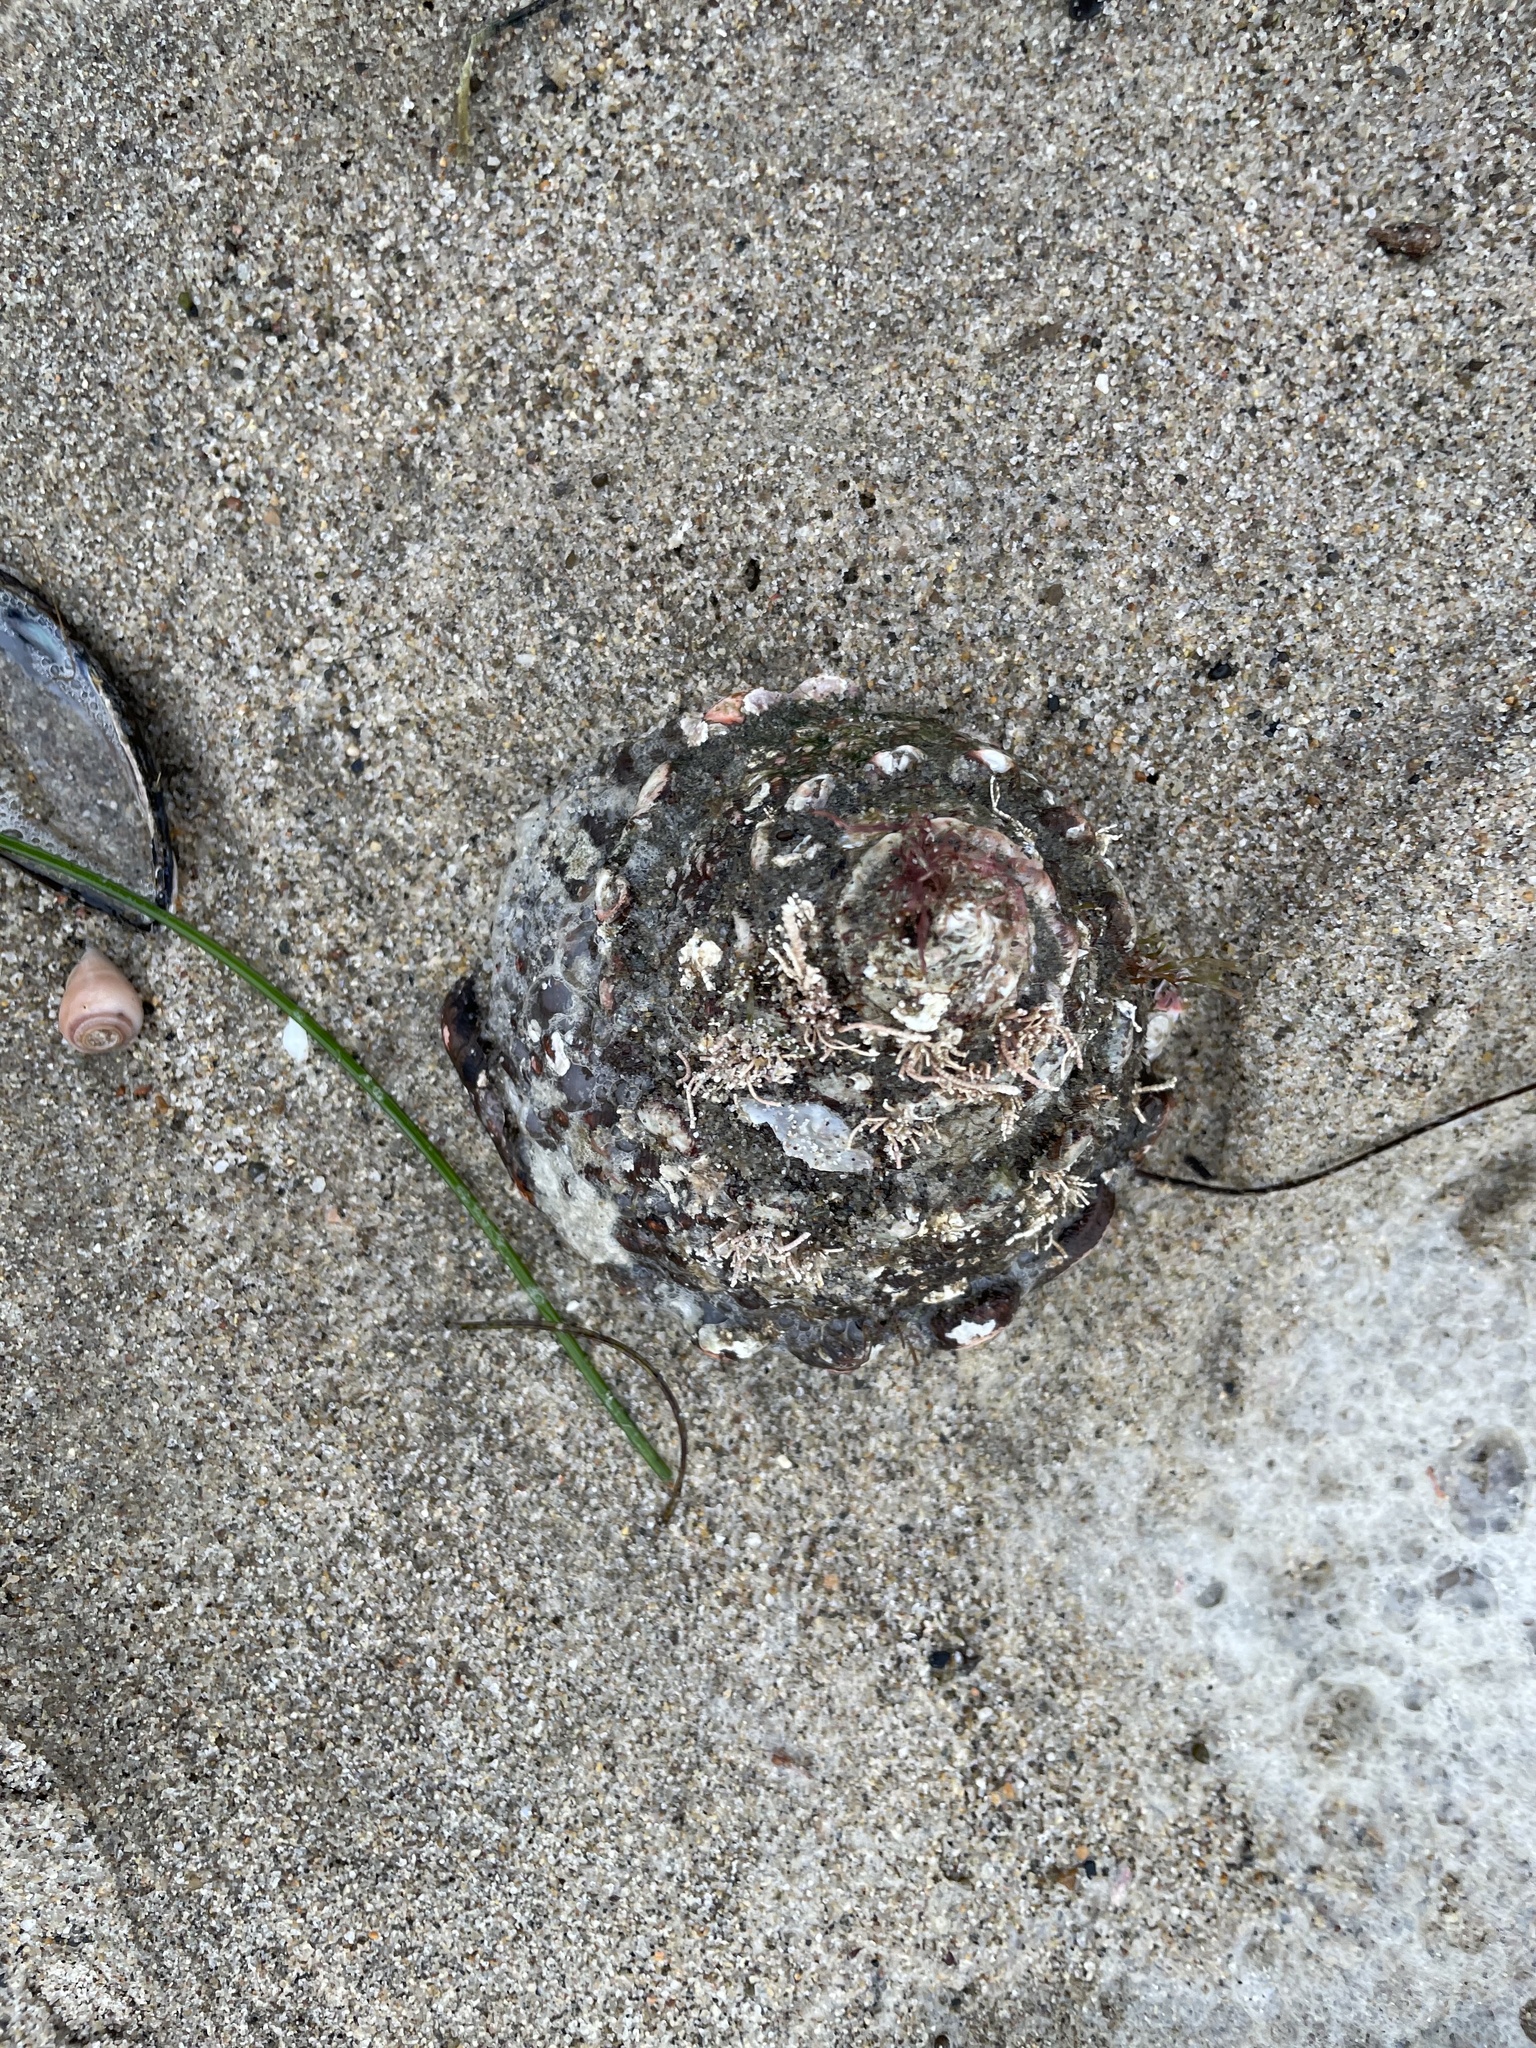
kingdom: Animalia
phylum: Mollusca
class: Gastropoda
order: Trochida
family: Turbinidae
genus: Megastraea
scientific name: Megastraea undosa
